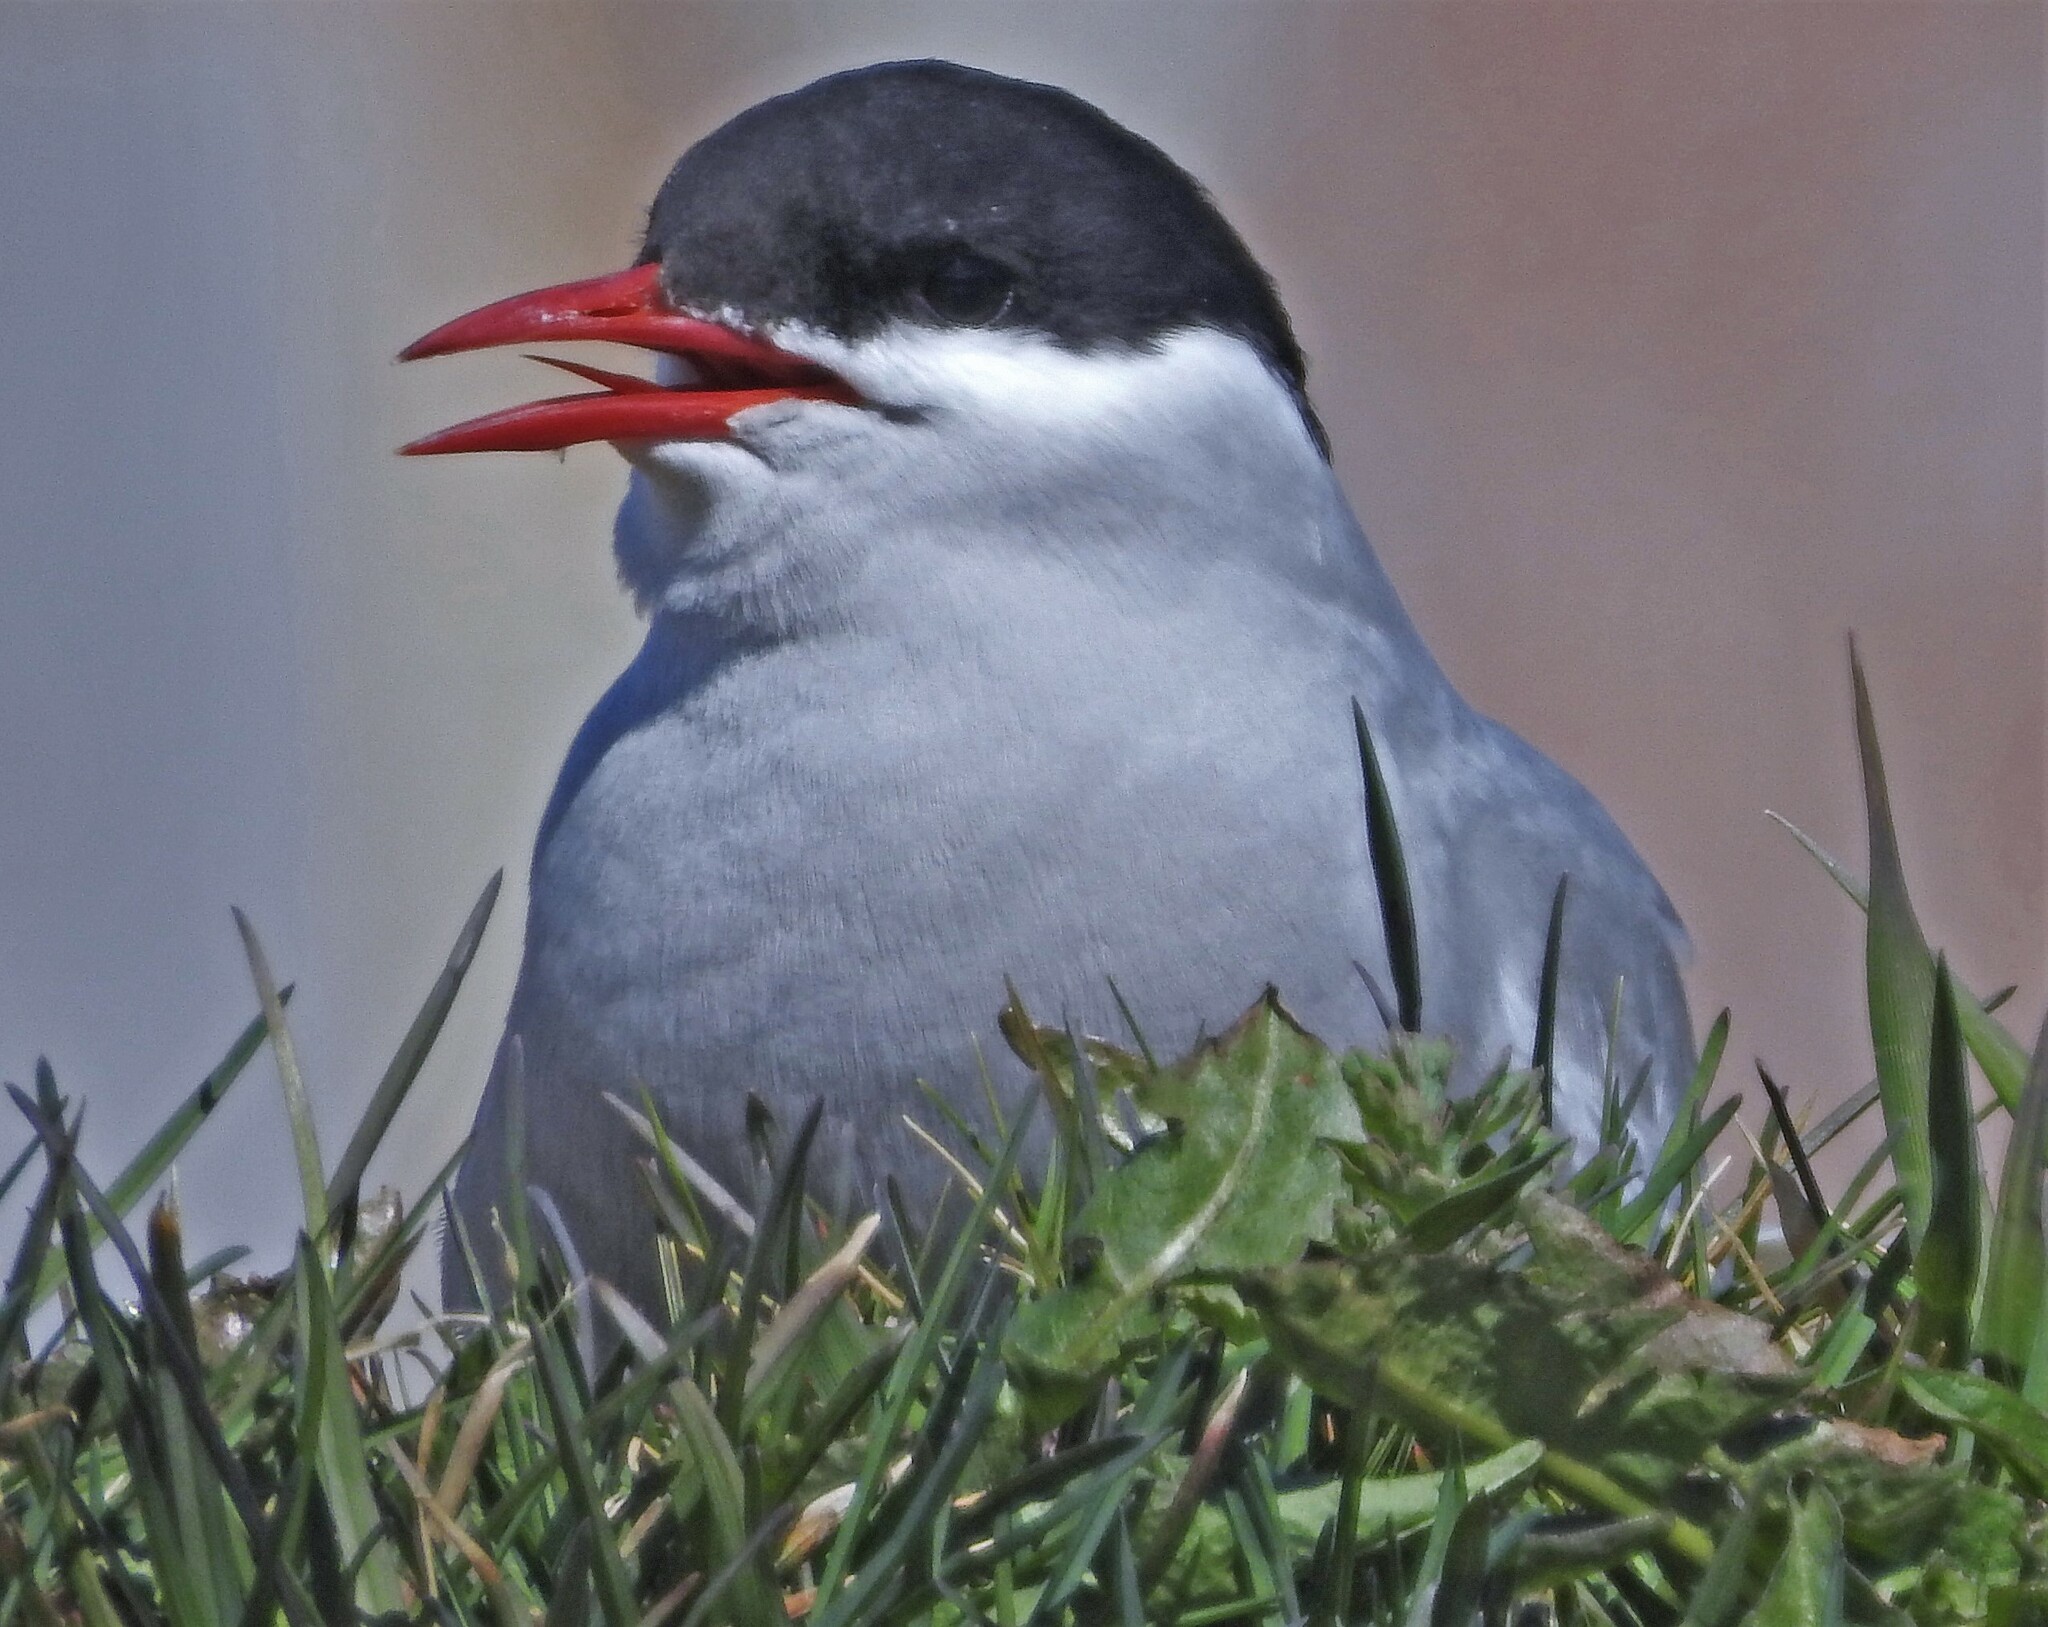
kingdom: Animalia
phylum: Chordata
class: Aves
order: Charadriiformes
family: Laridae
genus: Sterna
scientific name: Sterna vittata
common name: Antarctic tern
